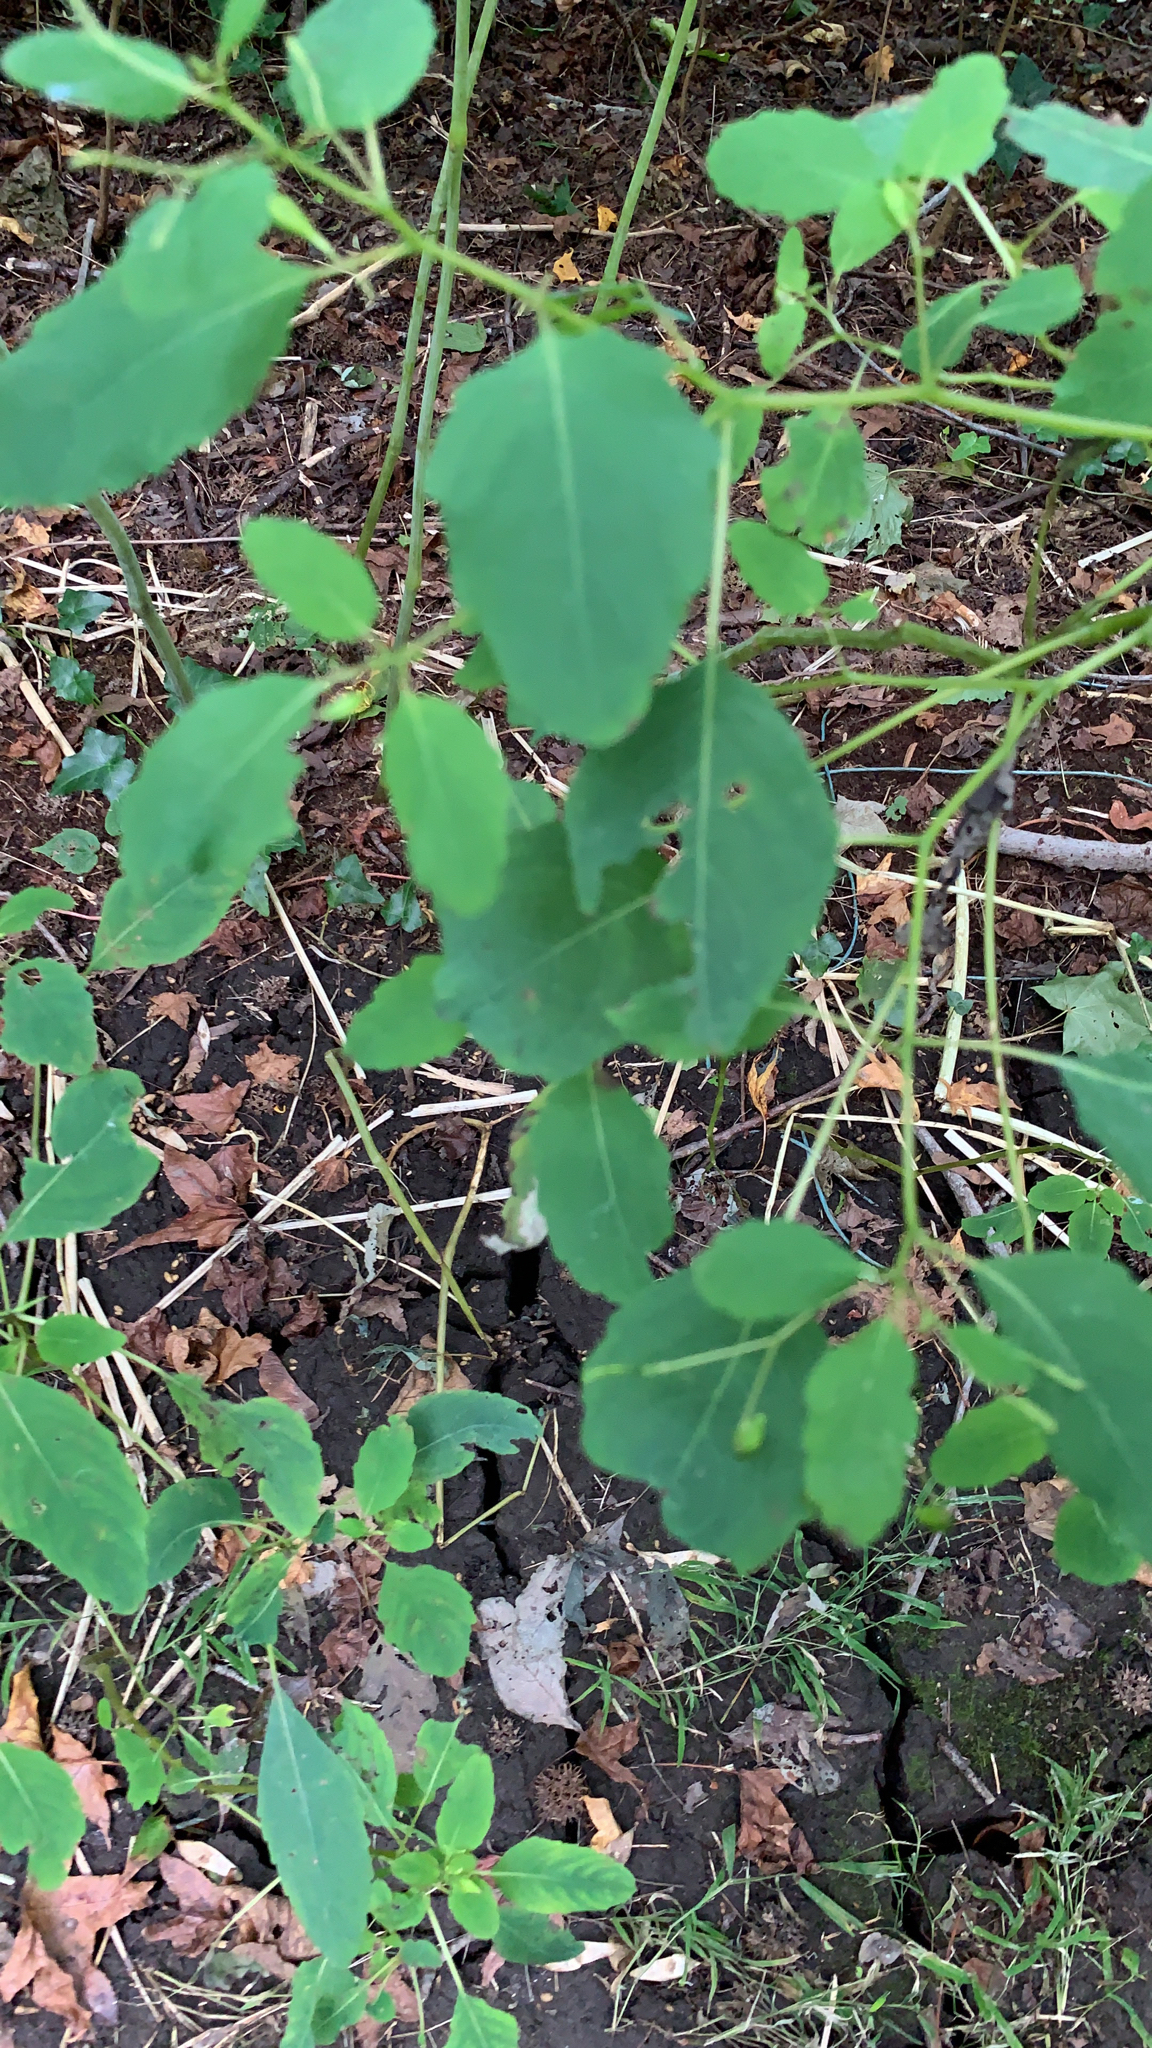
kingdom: Plantae
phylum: Tracheophyta
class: Magnoliopsida
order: Ericales
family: Balsaminaceae
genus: Impatiens
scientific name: Impatiens capensis
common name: Orange balsam
